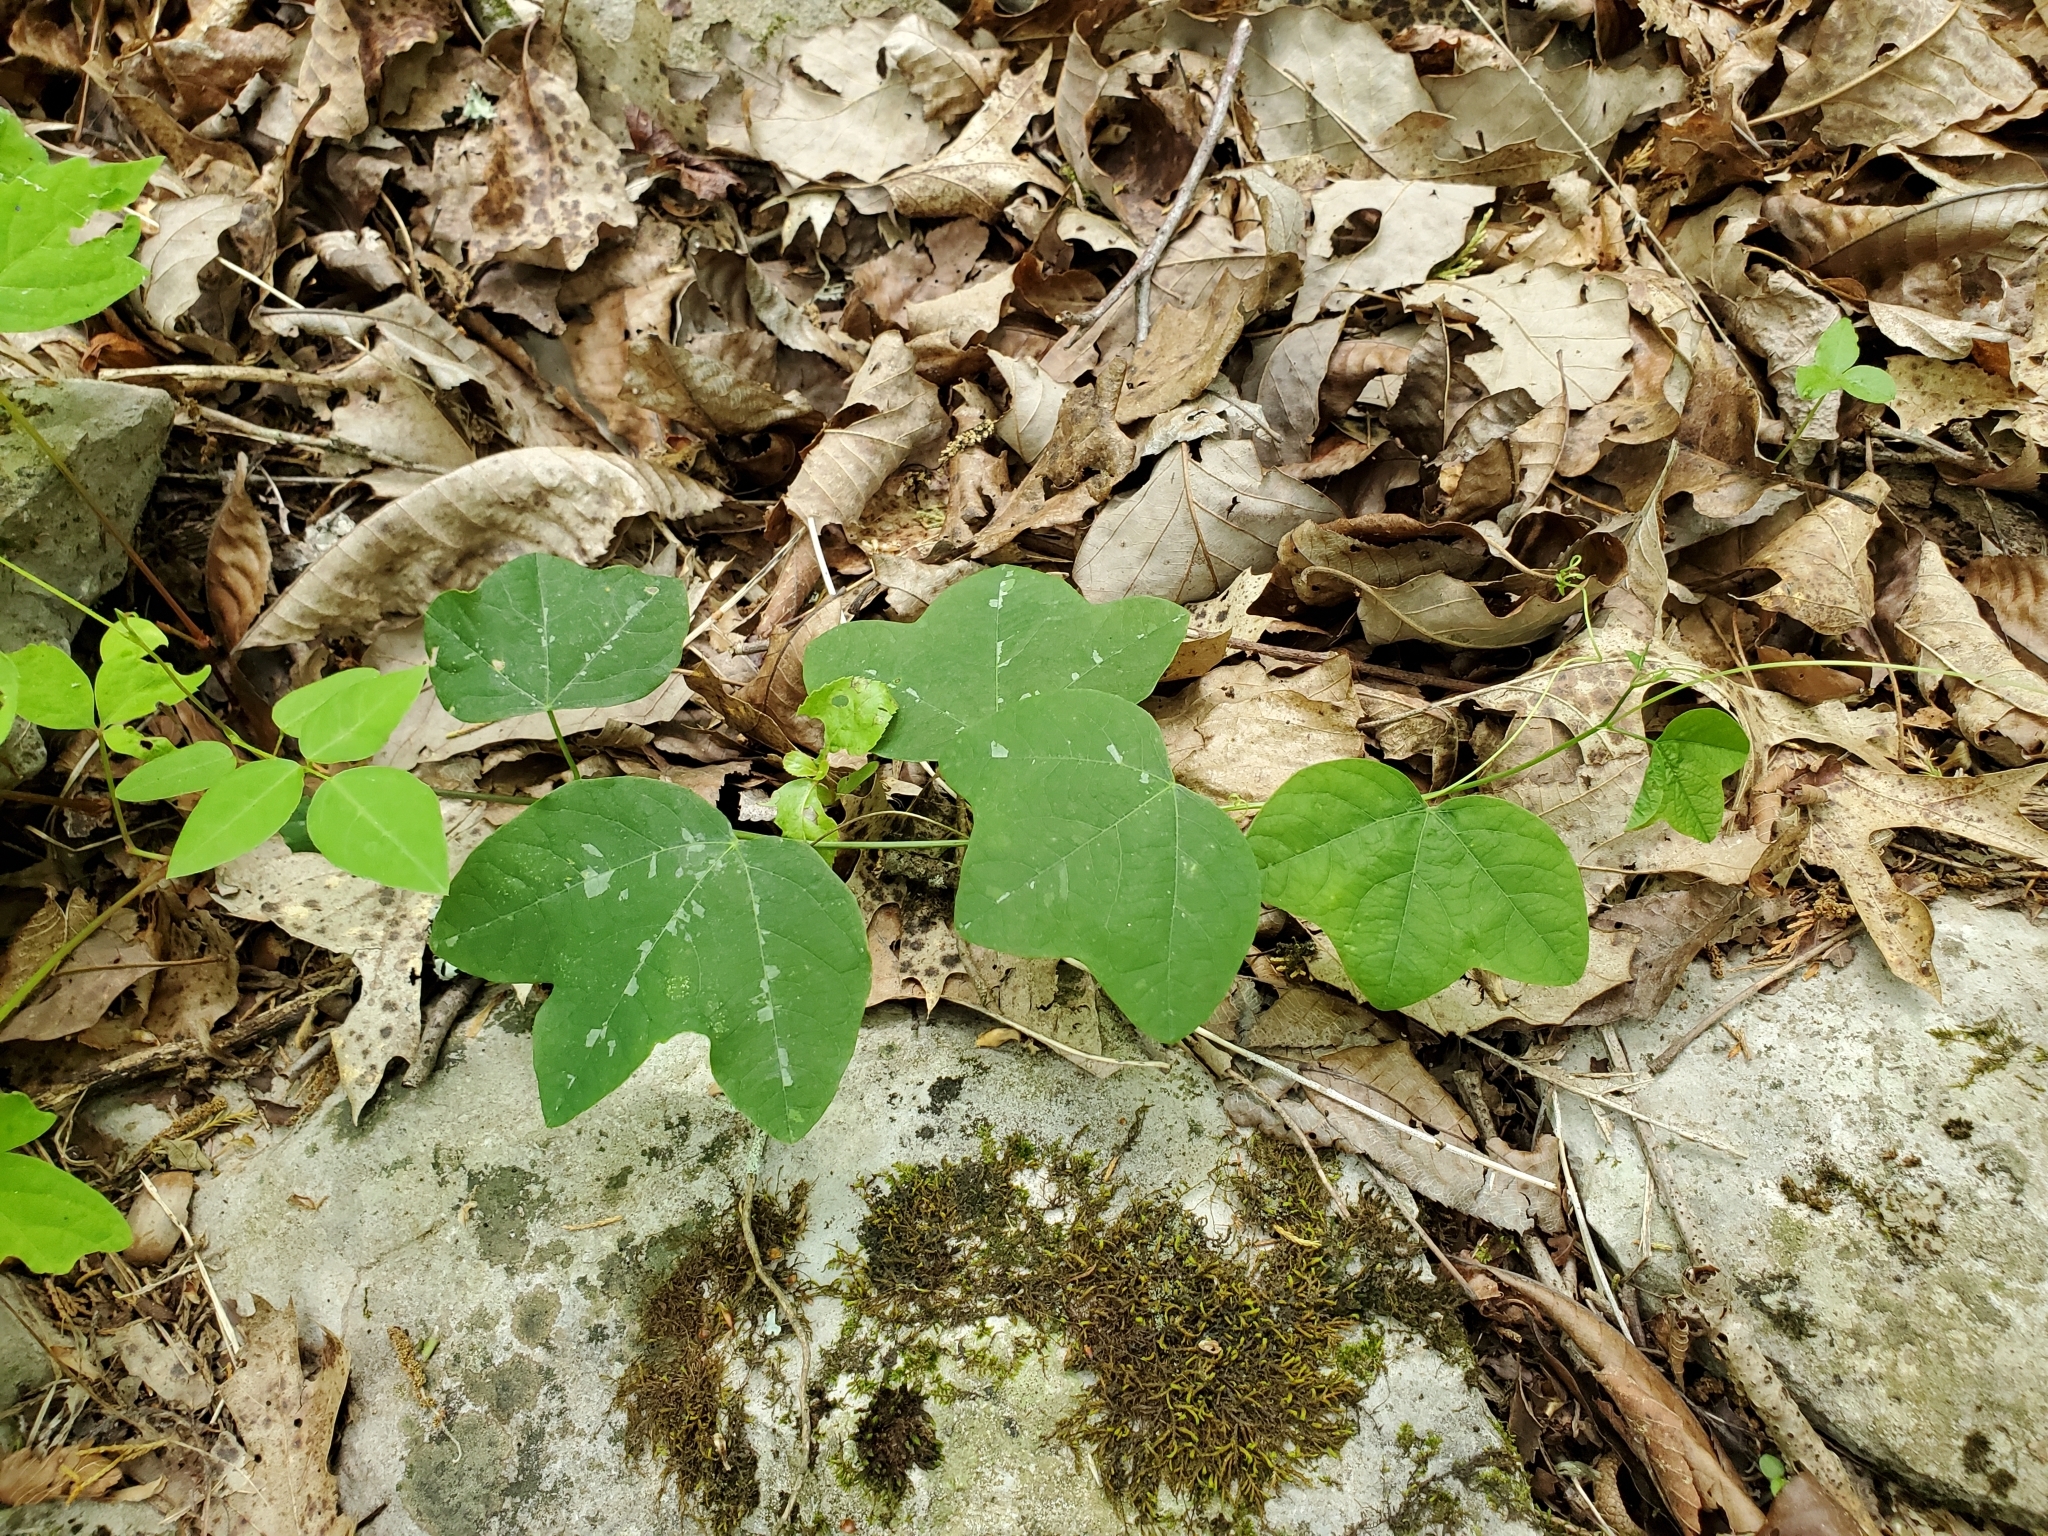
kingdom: Plantae
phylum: Tracheophyta
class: Magnoliopsida
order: Malpighiales
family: Passifloraceae
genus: Passiflora
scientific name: Passiflora lutea
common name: Yellow passionflower
